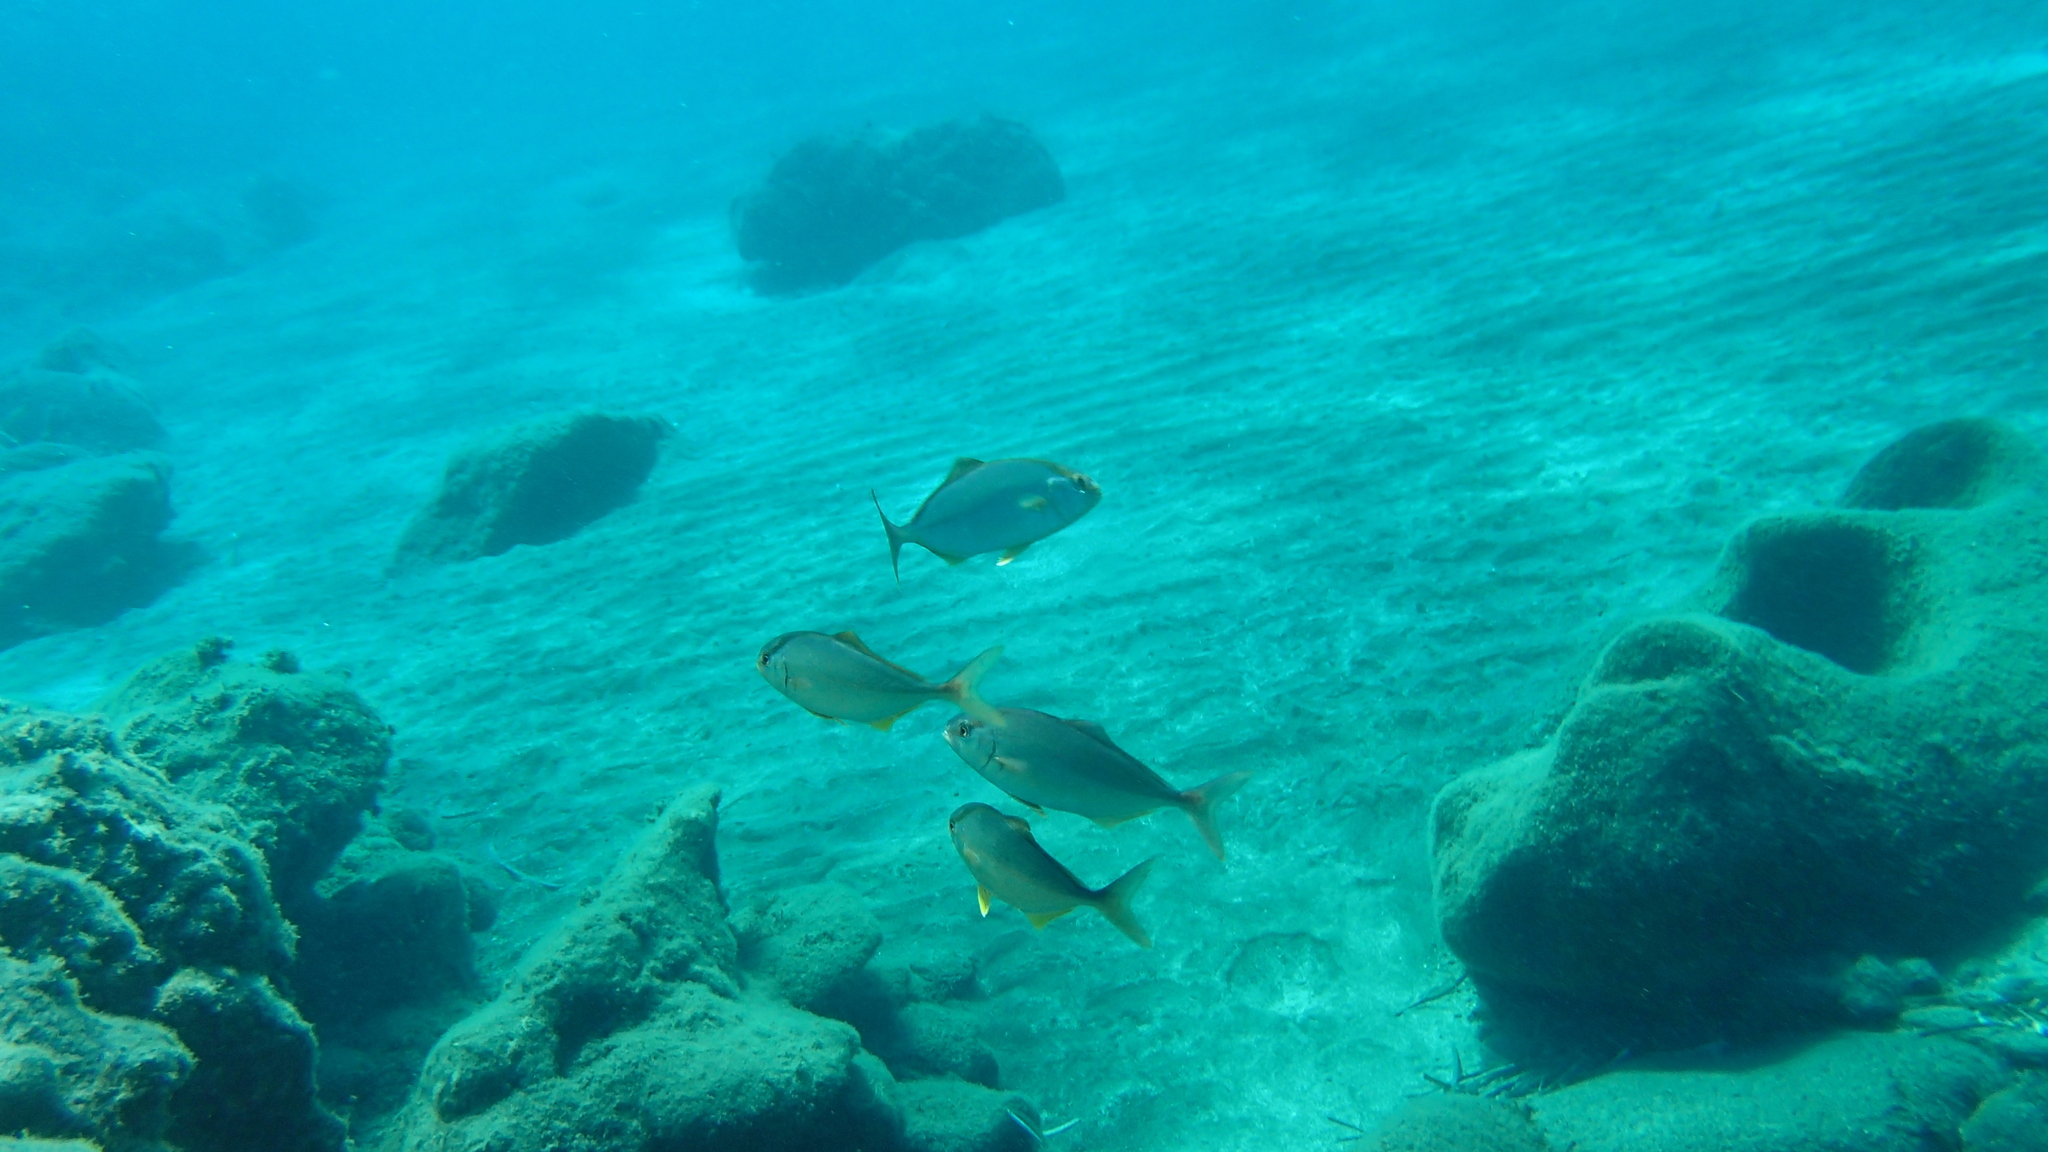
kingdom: Animalia
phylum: Chordata
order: Perciformes
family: Carangidae
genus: Seriola
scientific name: Seriola dumerili
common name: Greater amberjack
